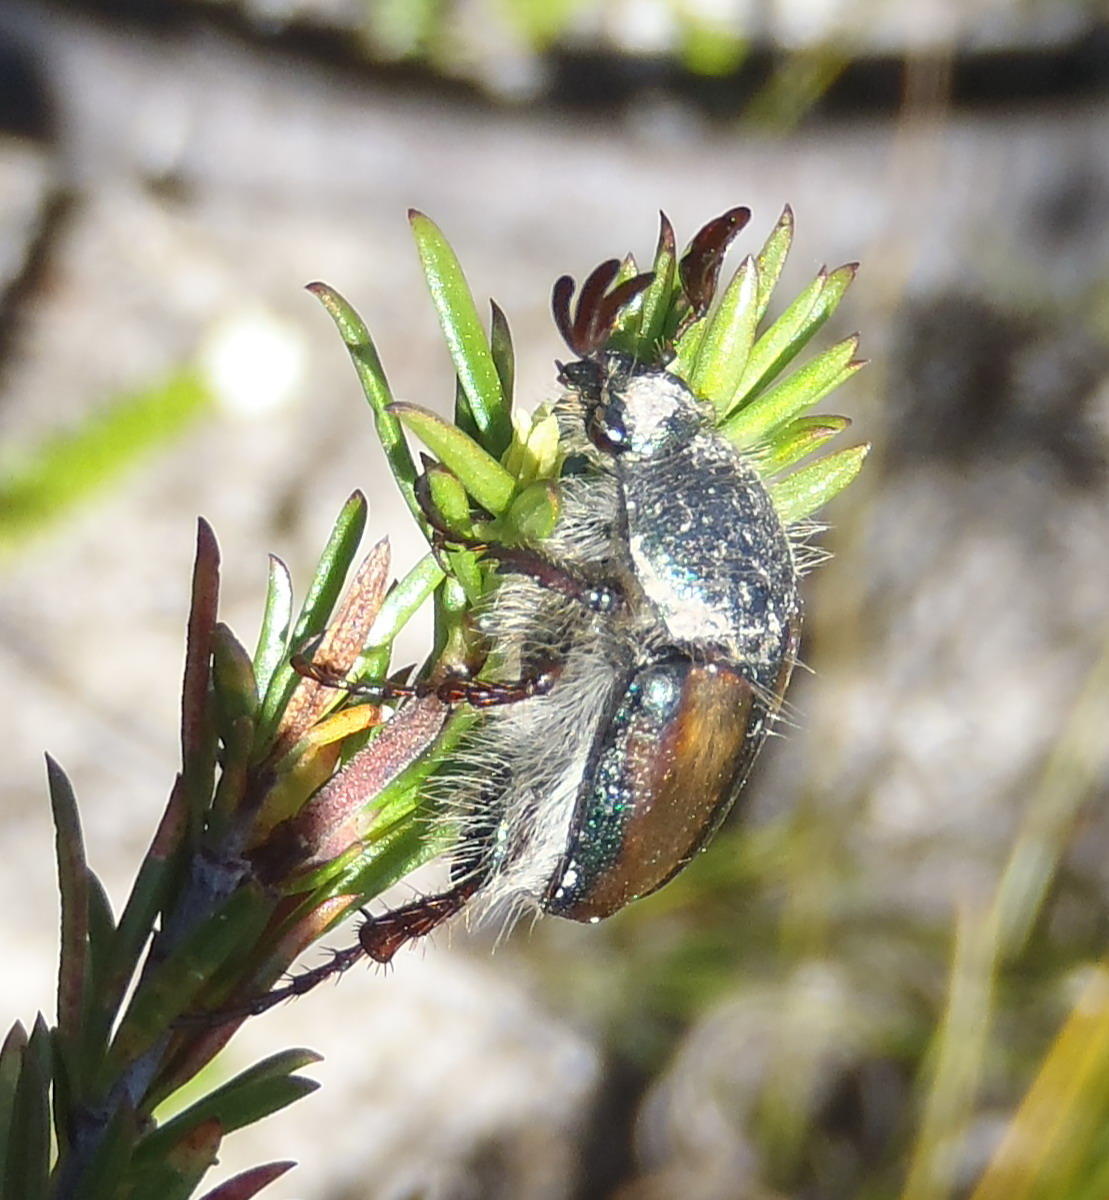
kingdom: Animalia
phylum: Arthropoda
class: Insecta
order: Coleoptera
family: Scarabaeidae
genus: Stegopterus
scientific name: Stegopterus septus
